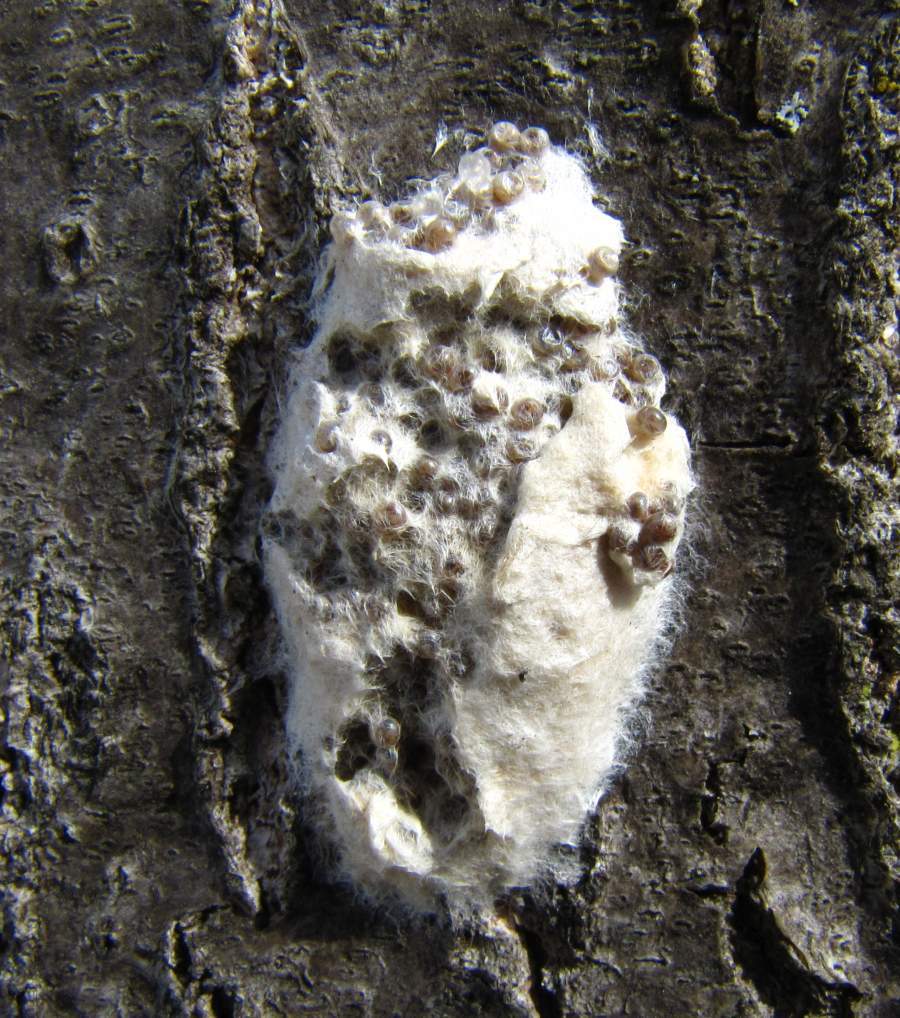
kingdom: Animalia
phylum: Arthropoda
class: Insecta
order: Lepidoptera
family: Erebidae
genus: Lymantria
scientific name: Lymantria dispar
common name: Gypsy moth
